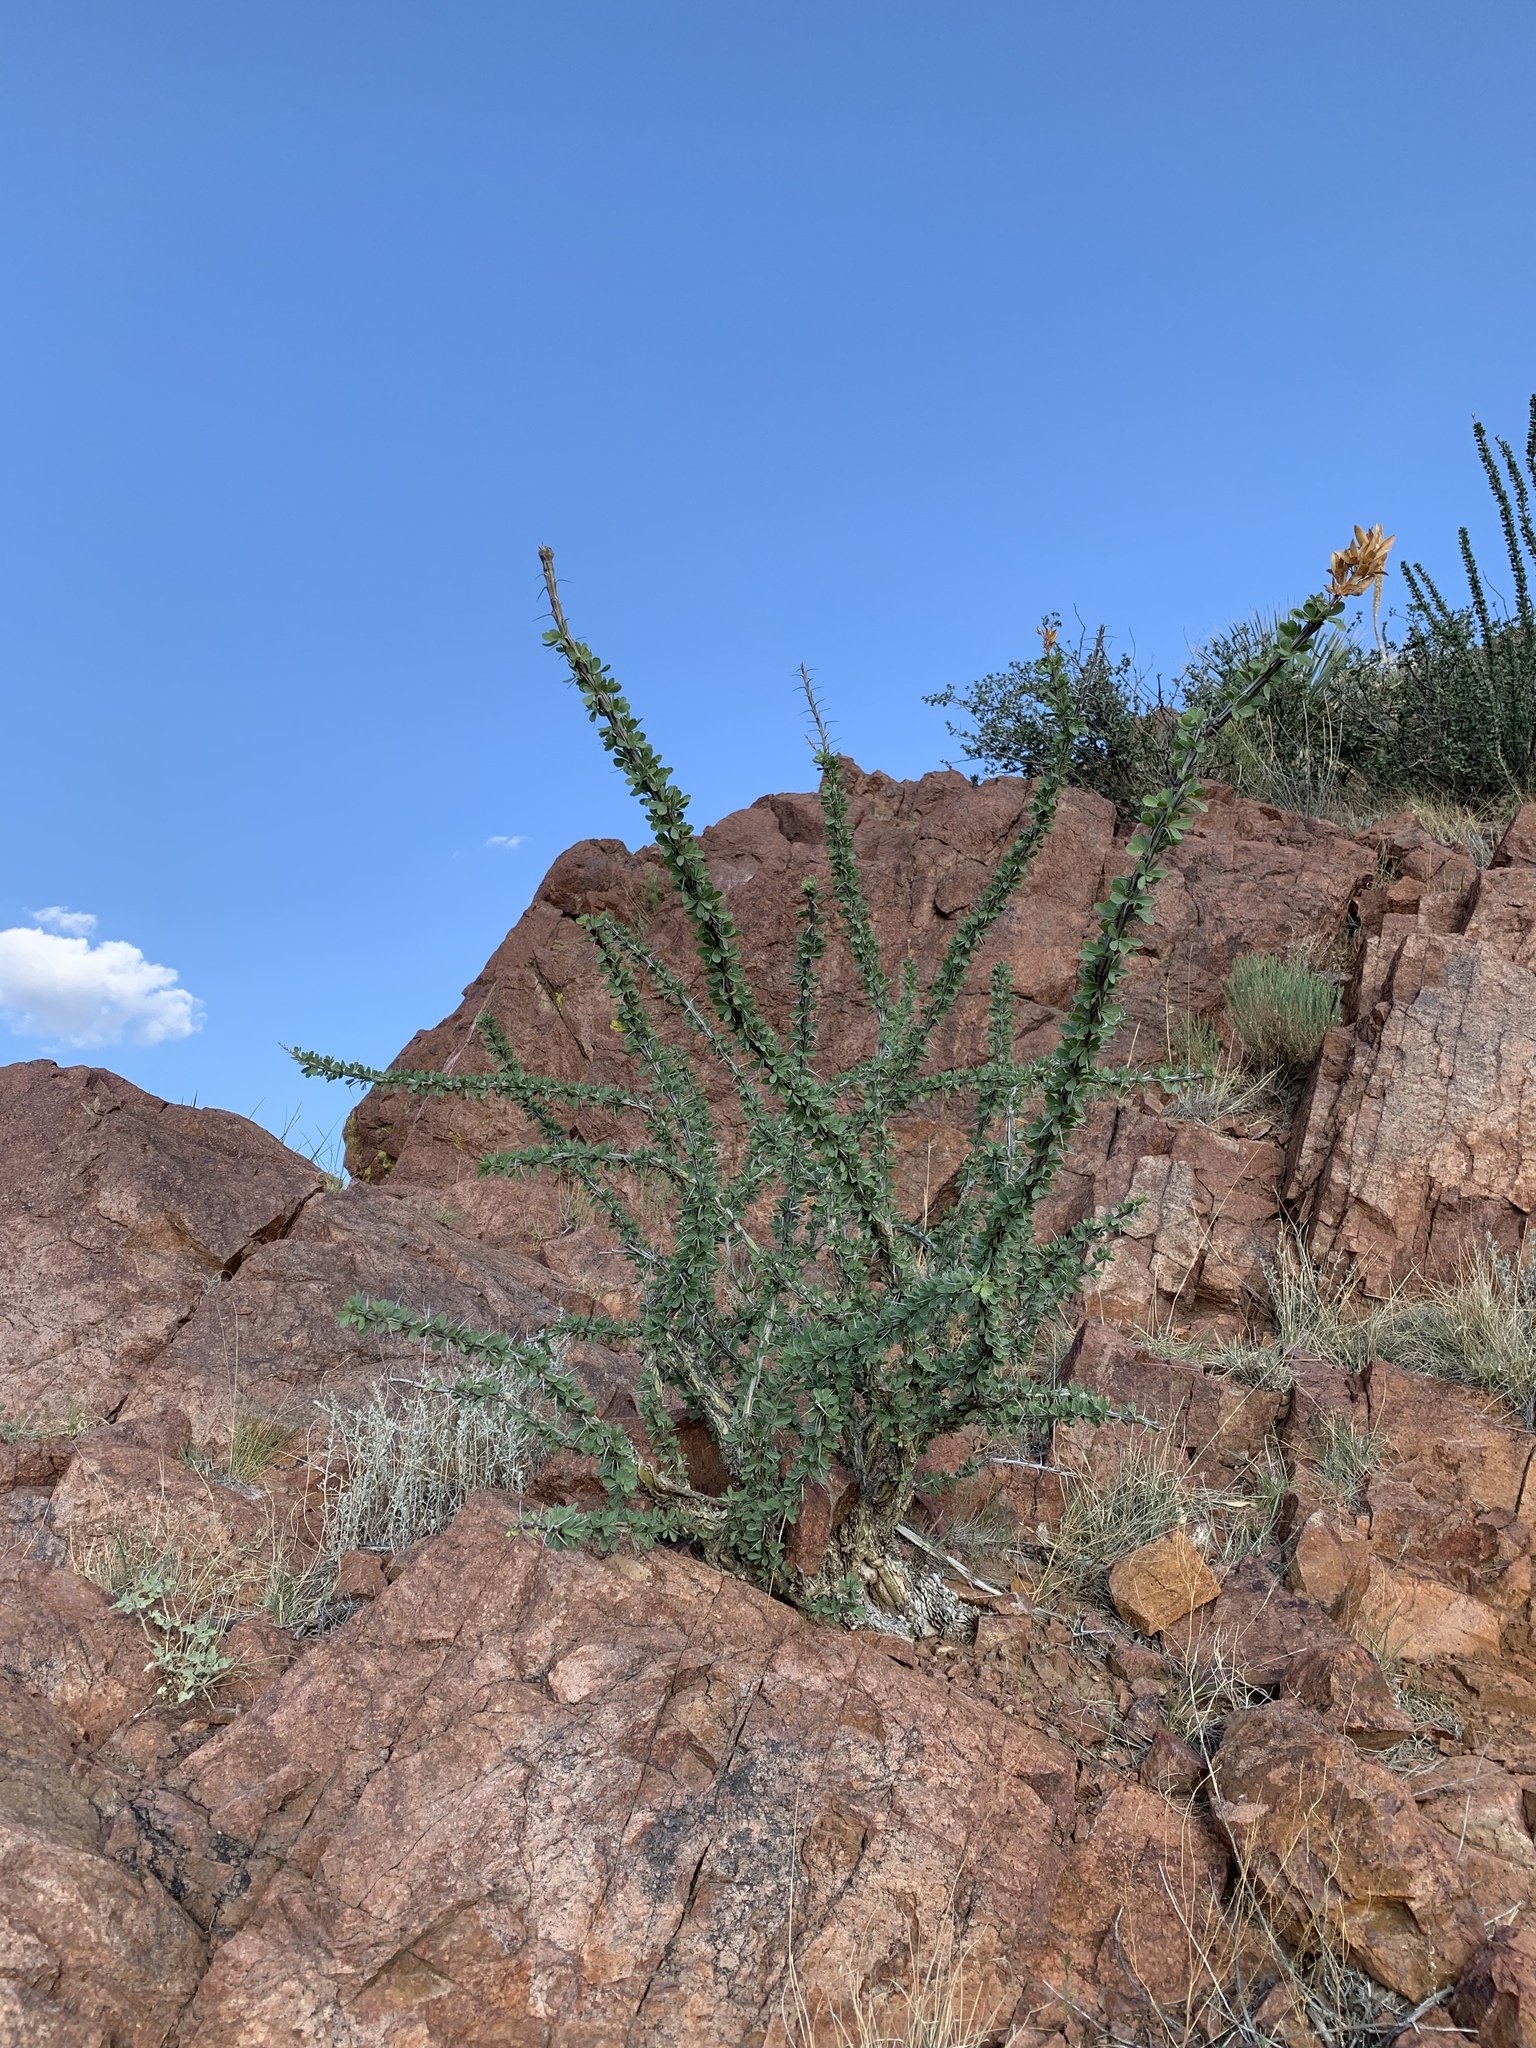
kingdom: Plantae
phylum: Tracheophyta
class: Magnoliopsida
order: Ericales
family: Fouquieriaceae
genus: Fouquieria
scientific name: Fouquieria splendens
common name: Vine-cactus
